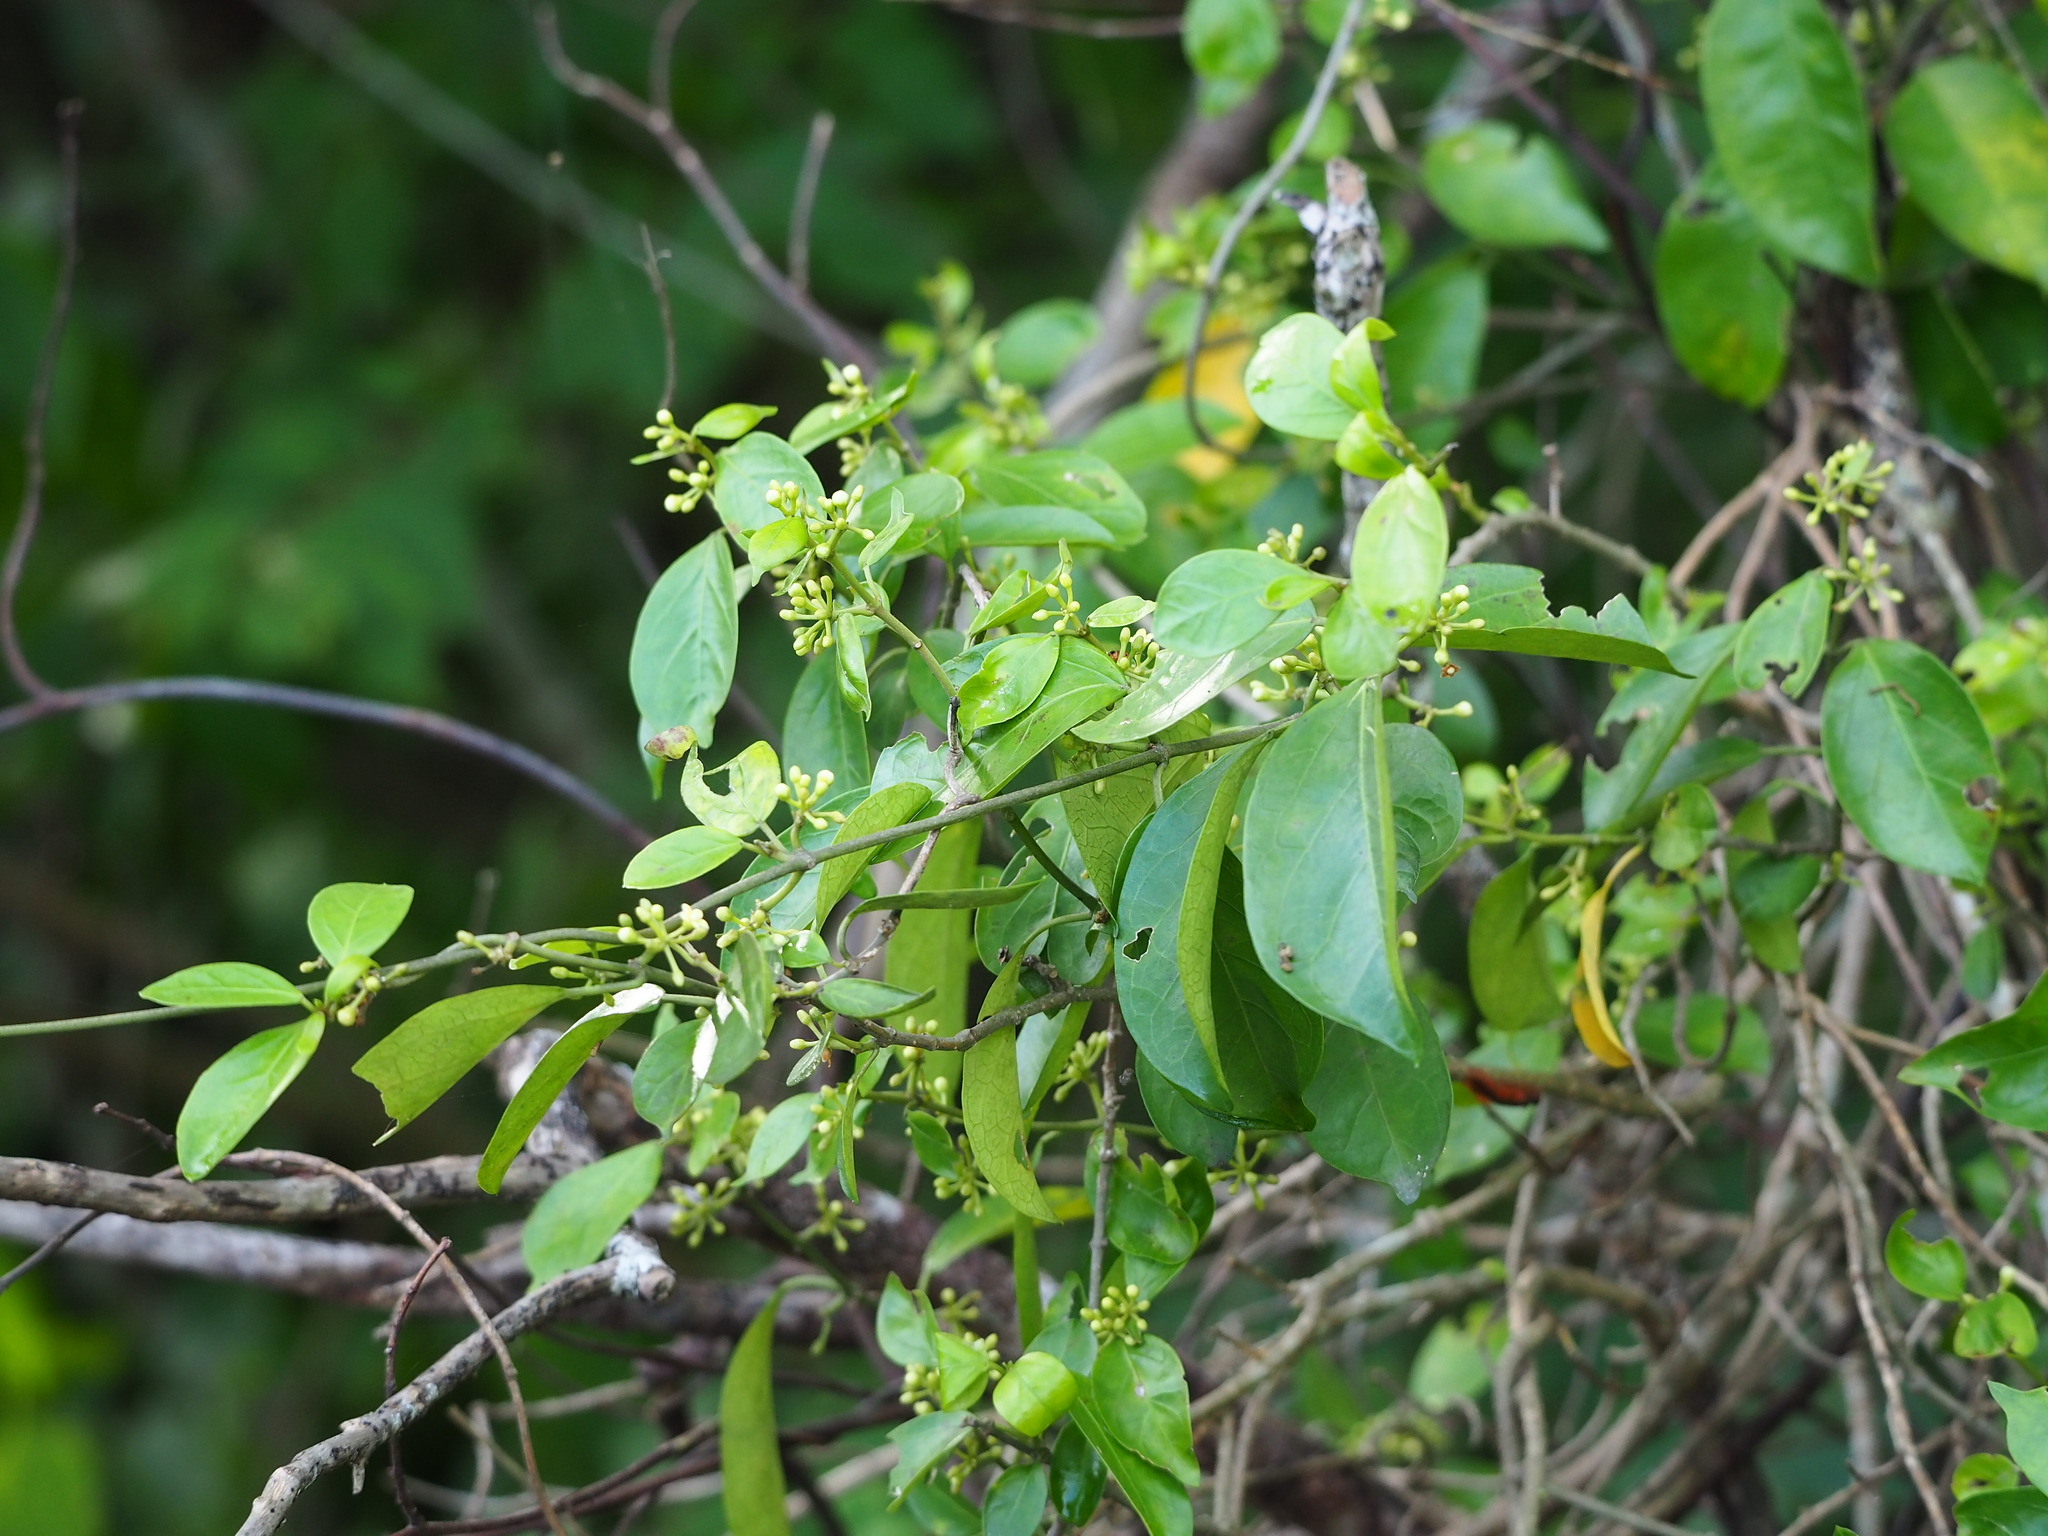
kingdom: Plantae
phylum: Tracheophyta
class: Magnoliopsida
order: Gentianales
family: Apocynaceae
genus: Gymnema
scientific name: Gymnema sylvestre
